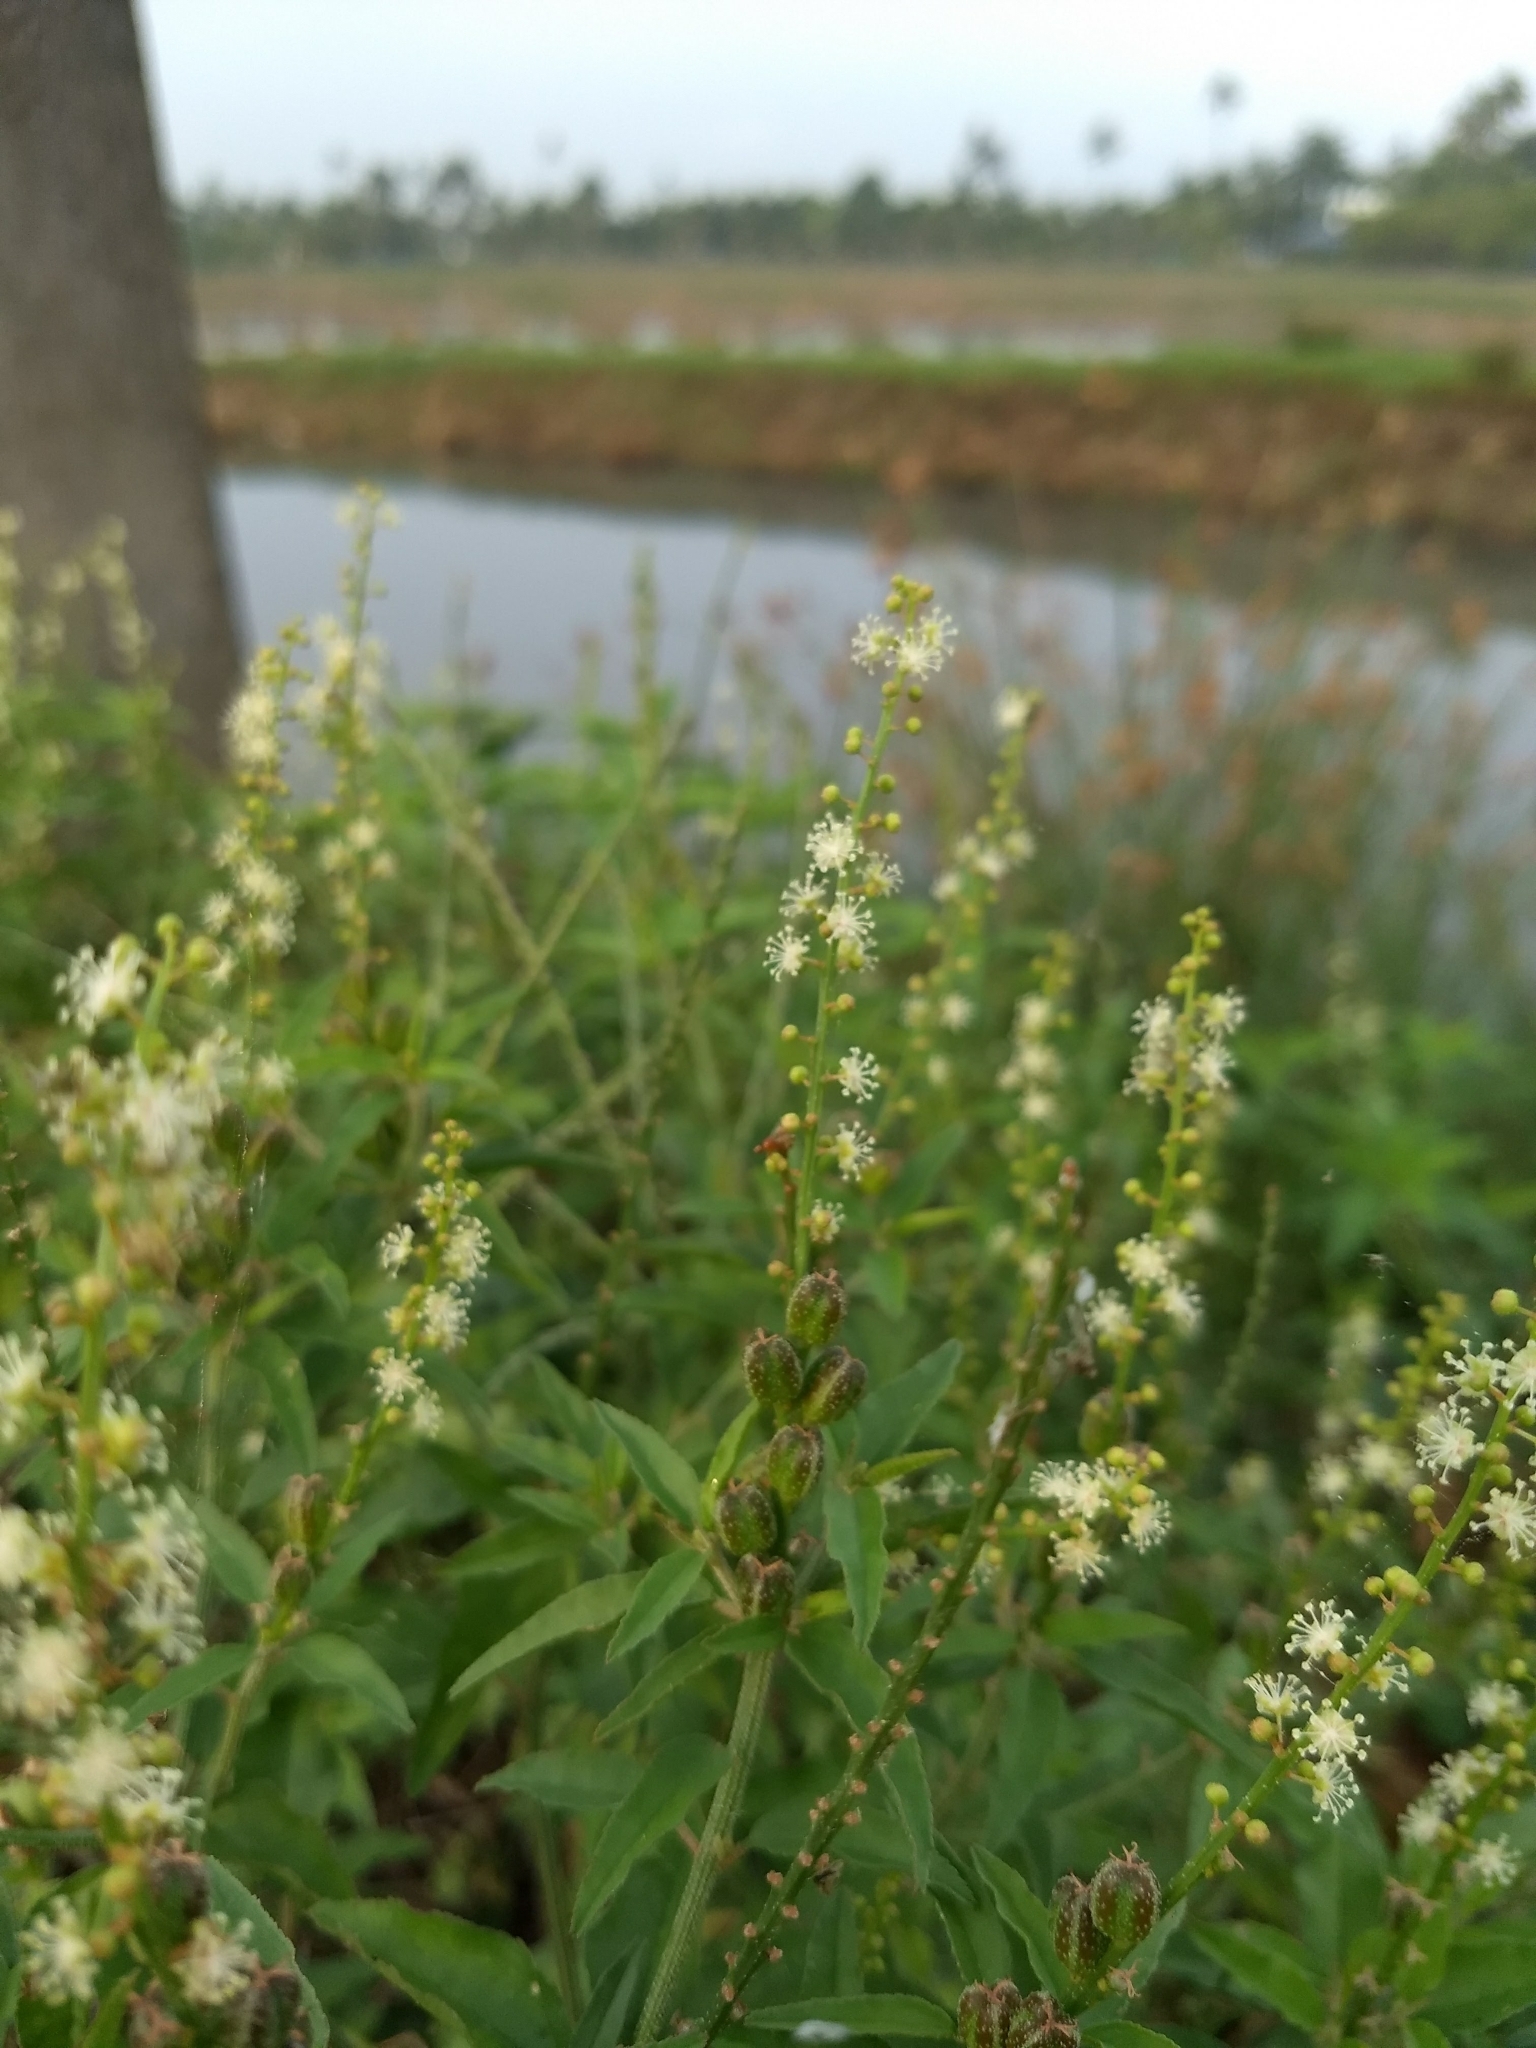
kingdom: Plantae
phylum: Tracheophyta
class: Magnoliopsida
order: Malpighiales
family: Euphorbiaceae
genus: Croton
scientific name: Croton bonplandianus
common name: Bonpland's croton
